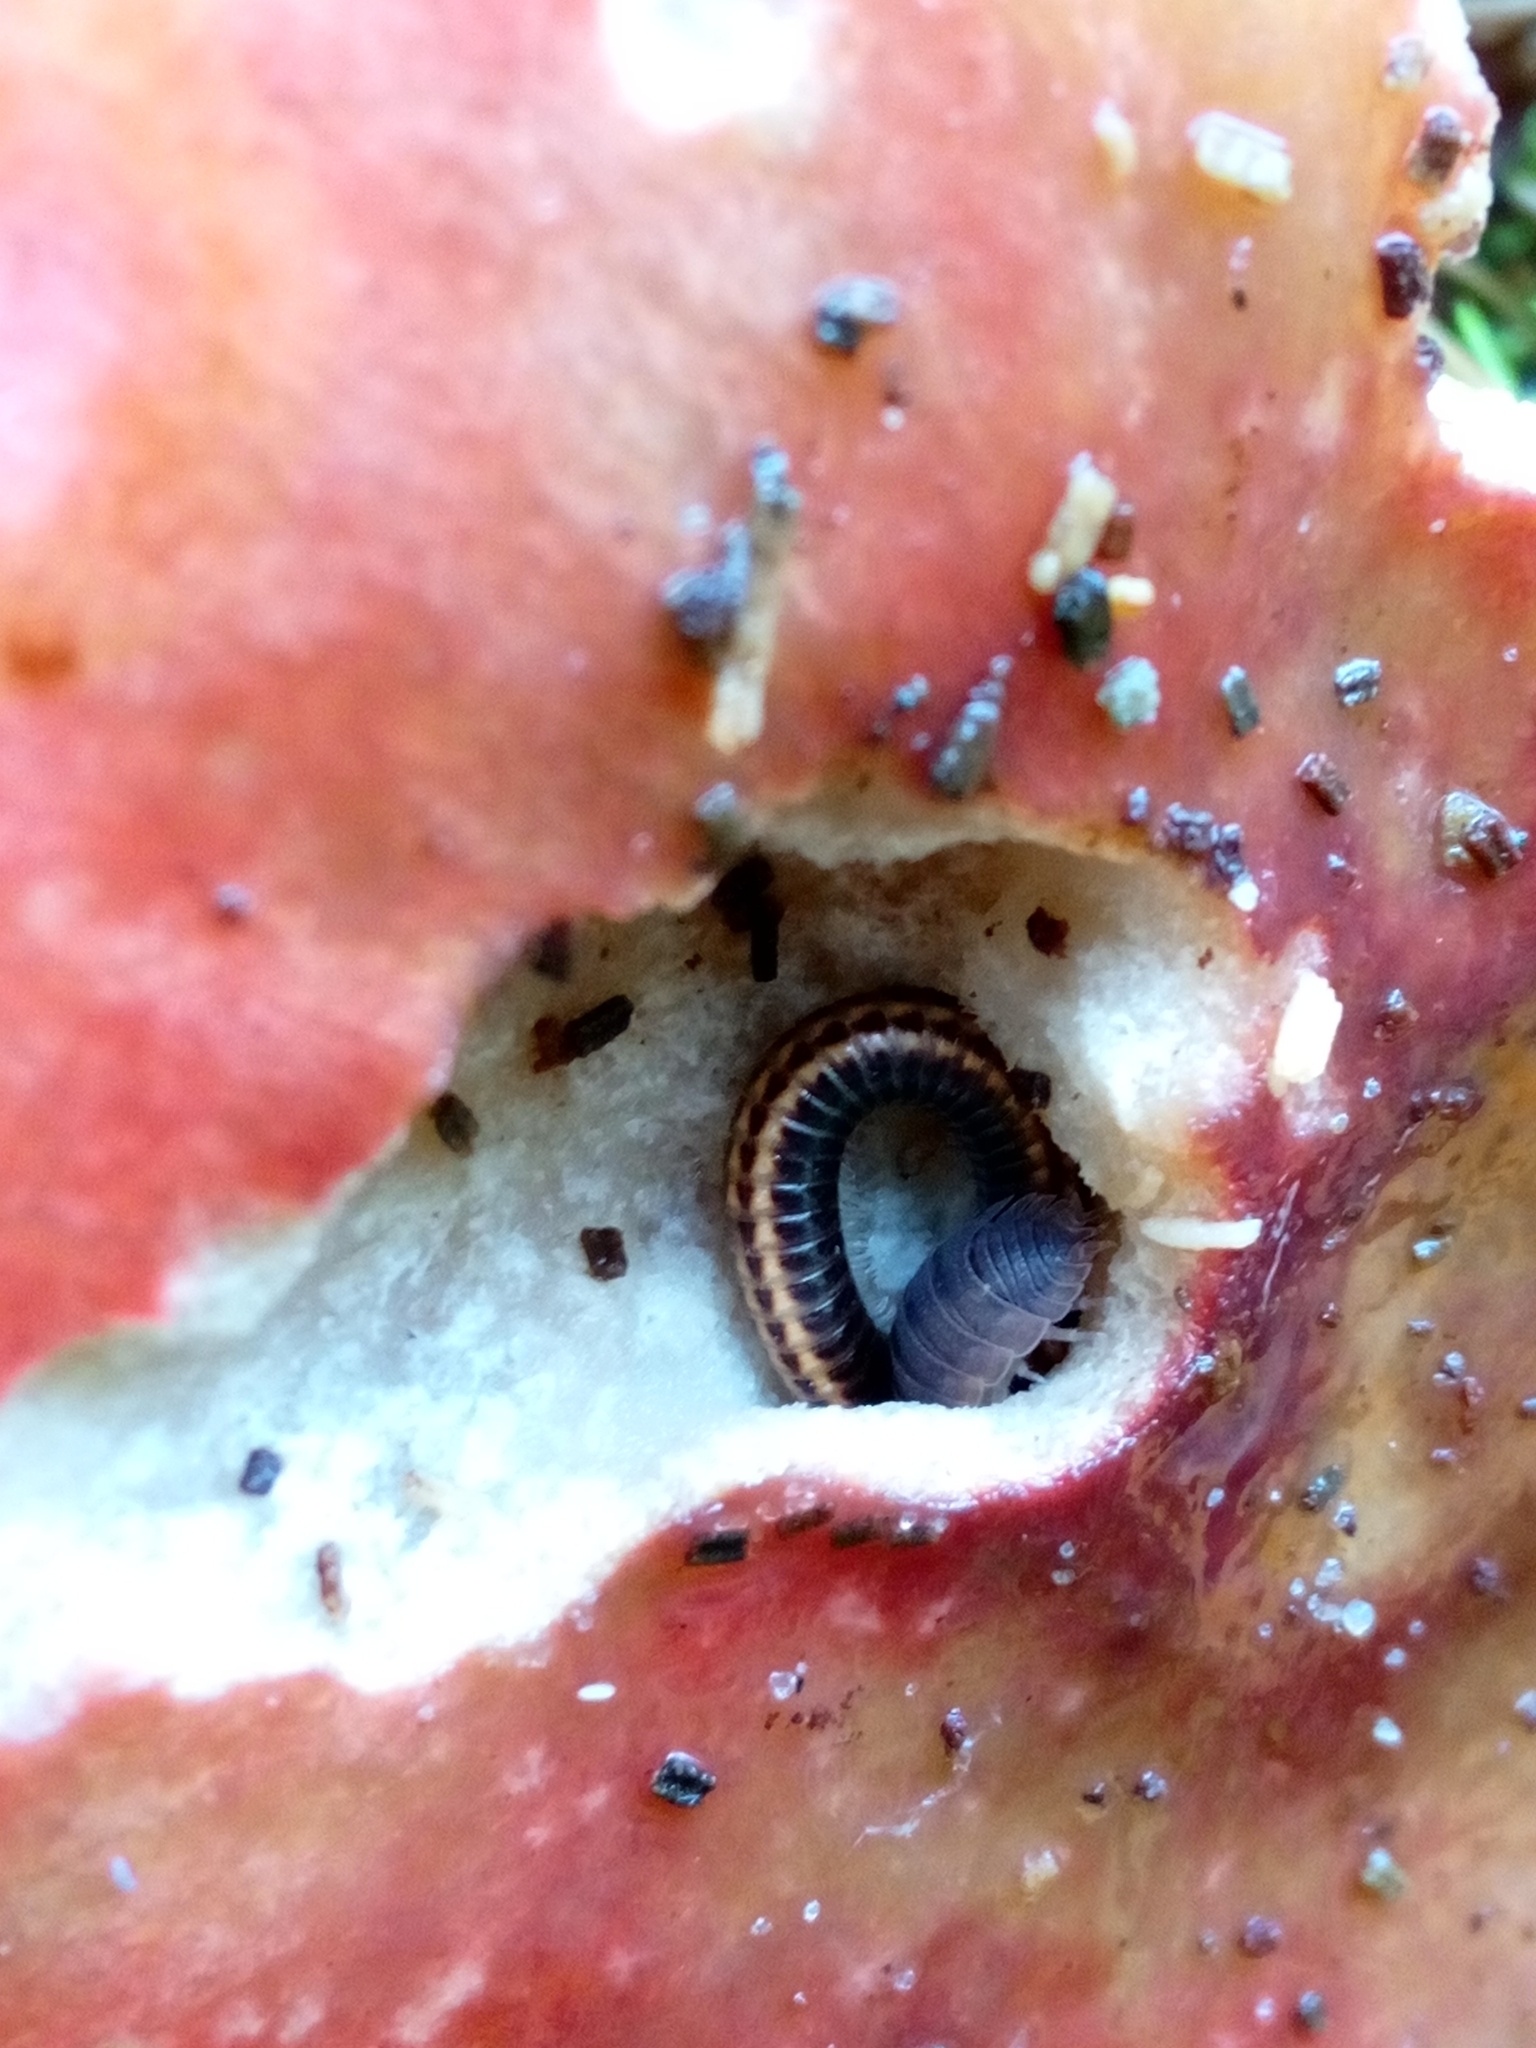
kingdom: Animalia
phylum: Arthropoda
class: Diplopoda
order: Julida
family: Julidae
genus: Ommatoiulus
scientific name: Ommatoiulus sabulosus
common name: Striped millipede
